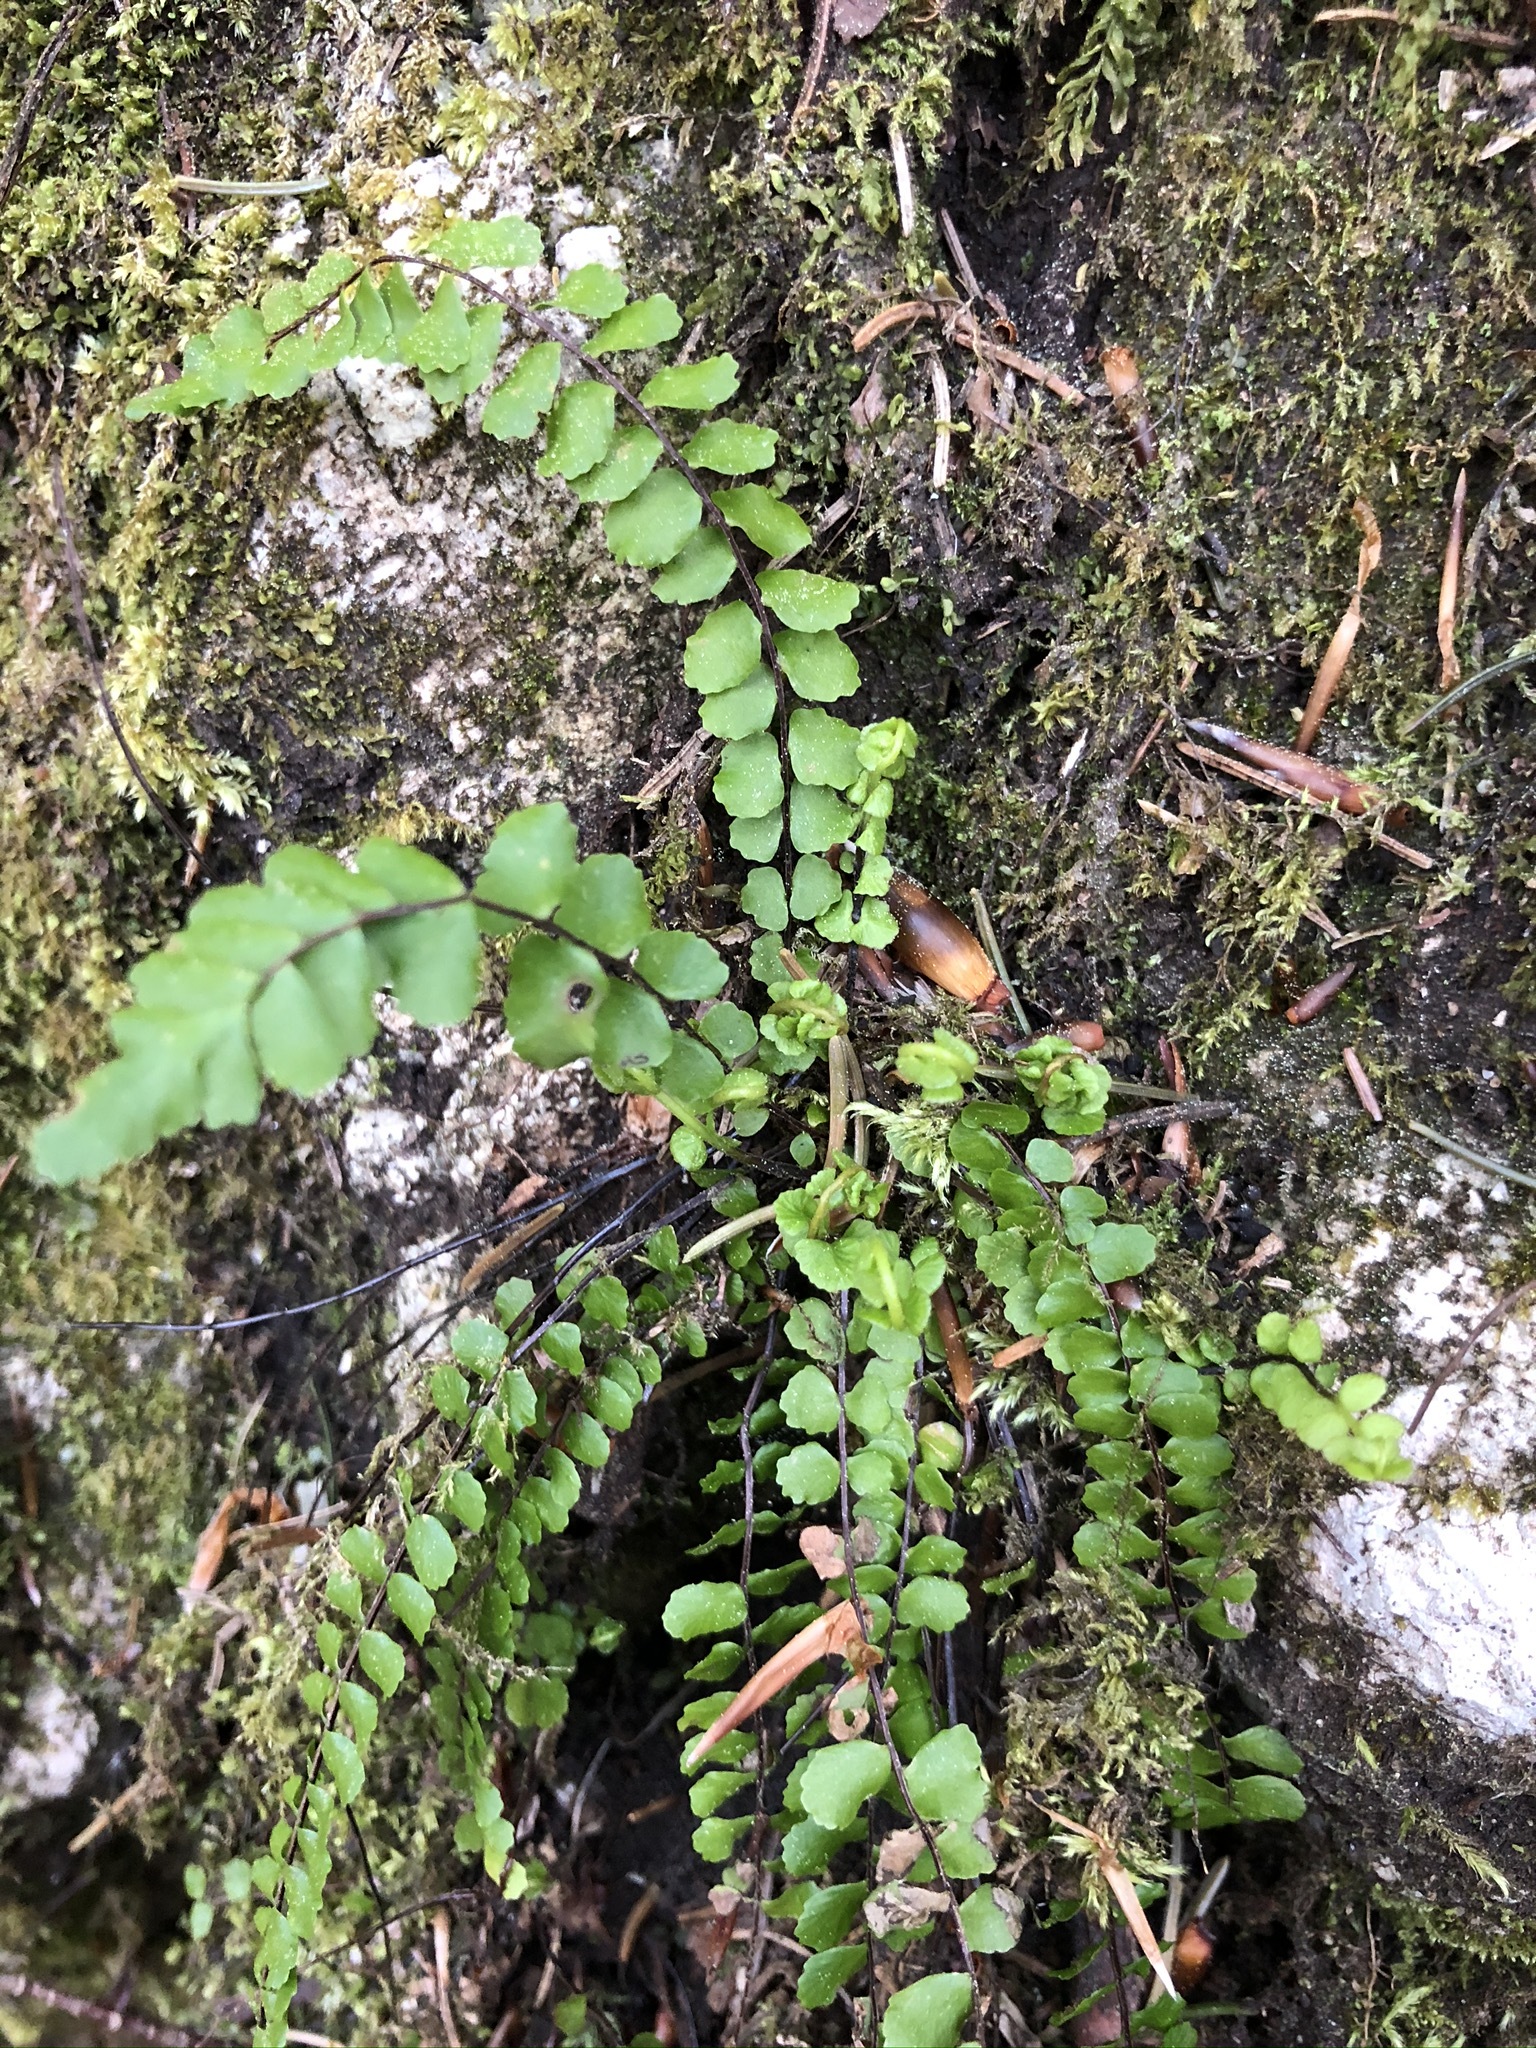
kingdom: Plantae
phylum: Tracheophyta
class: Polypodiopsida
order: Polypodiales
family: Aspleniaceae
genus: Asplenium
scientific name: Asplenium trichomanes
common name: Maidenhair spleenwort
